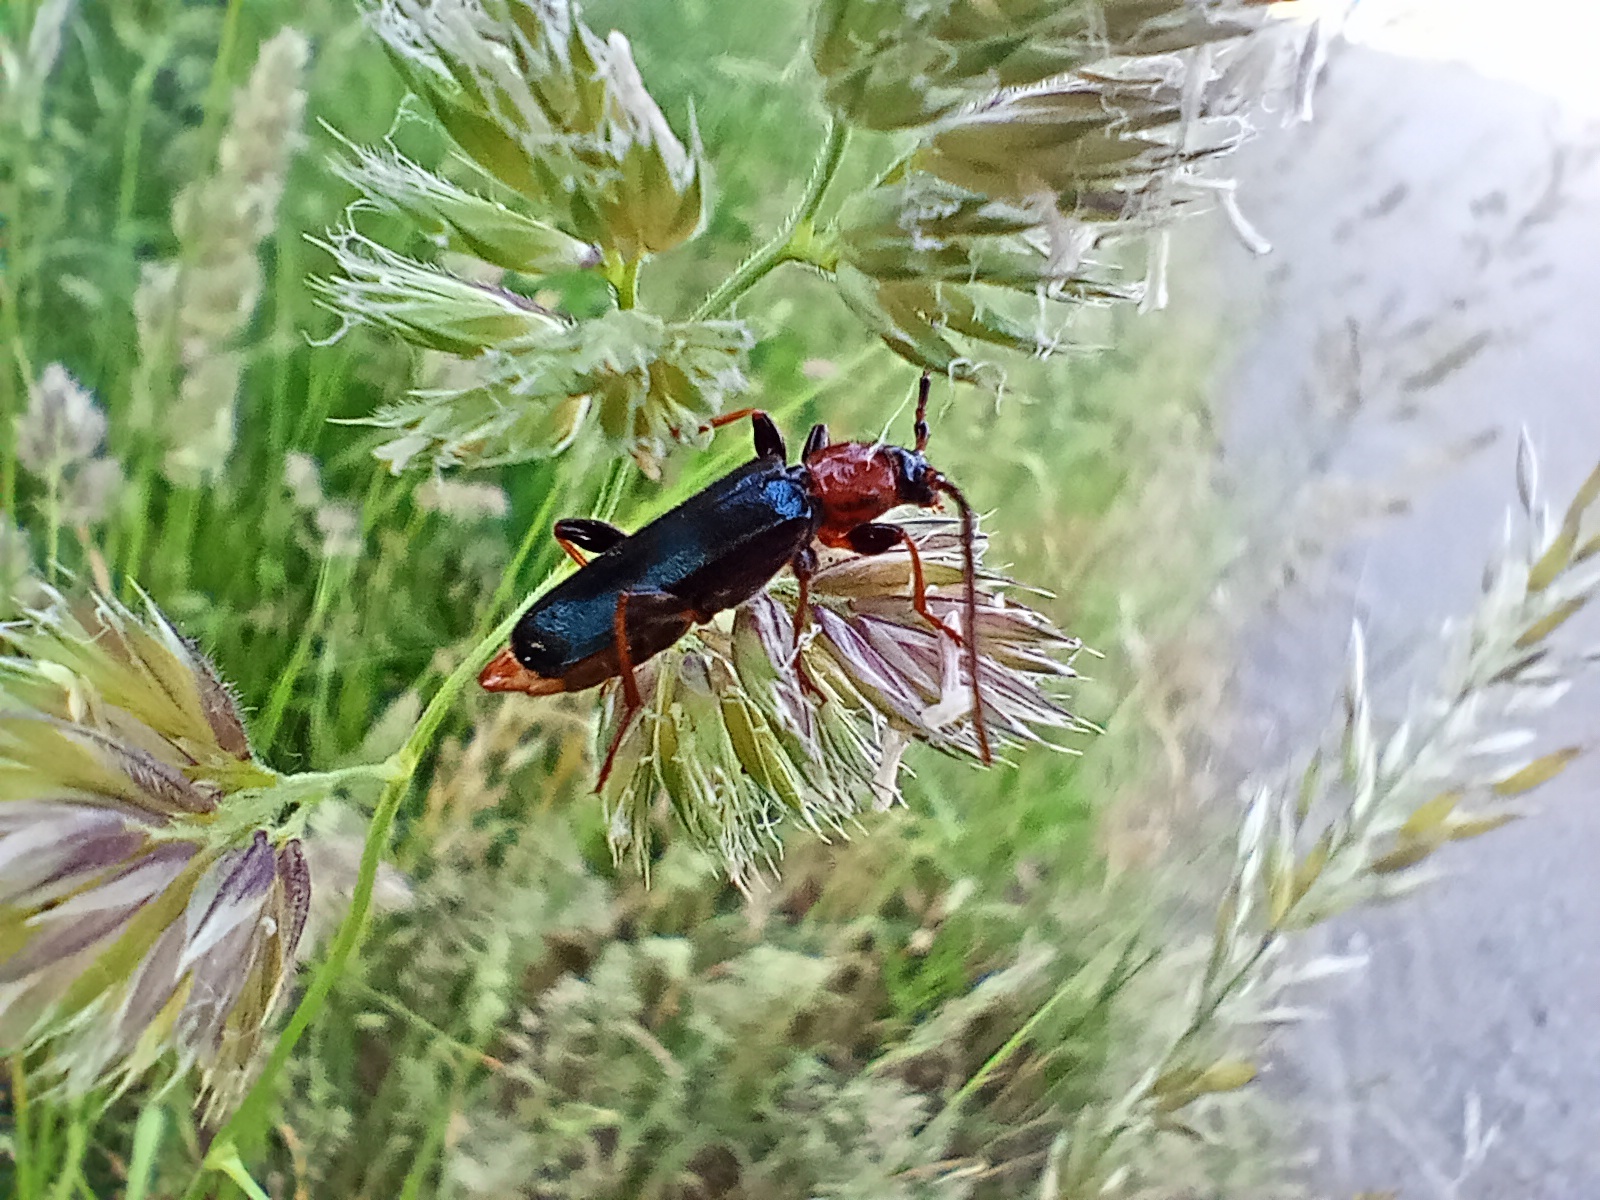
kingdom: Animalia
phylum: Arthropoda
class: Insecta
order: Coleoptera
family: Cerambycidae
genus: Phymatodes
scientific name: Phymatodes testaceus
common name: Long-horned beetle
